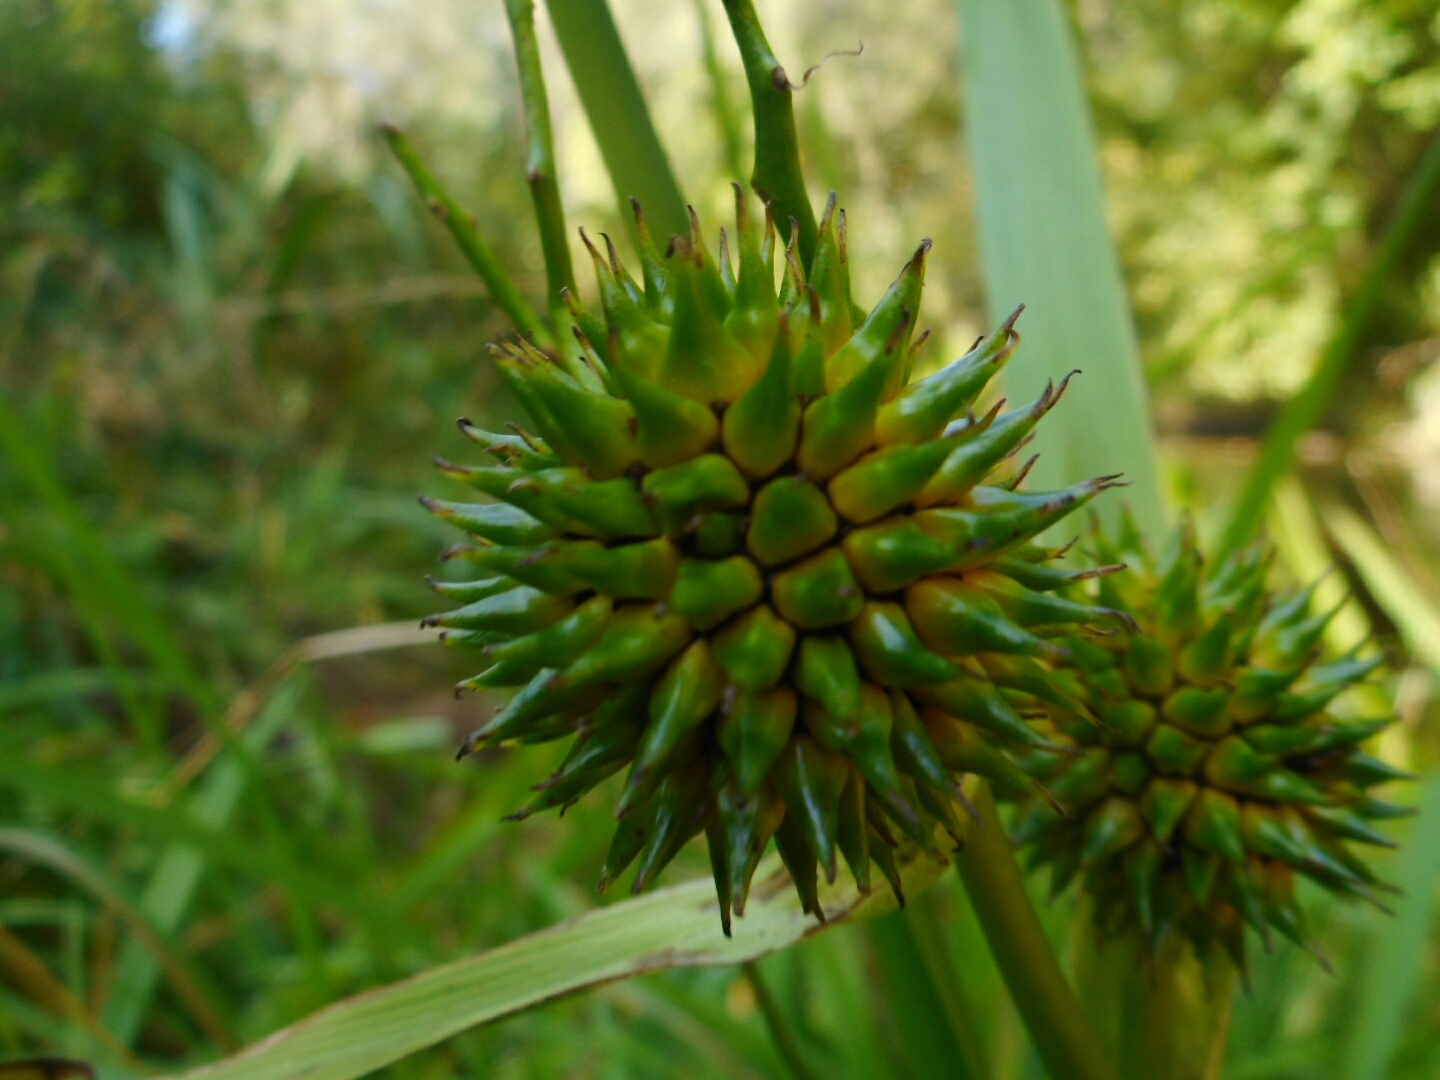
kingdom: Plantae
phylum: Tracheophyta
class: Liliopsida
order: Poales
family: Typhaceae
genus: Sparganium
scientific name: Sparganium erectum
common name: Branched bur-reed
